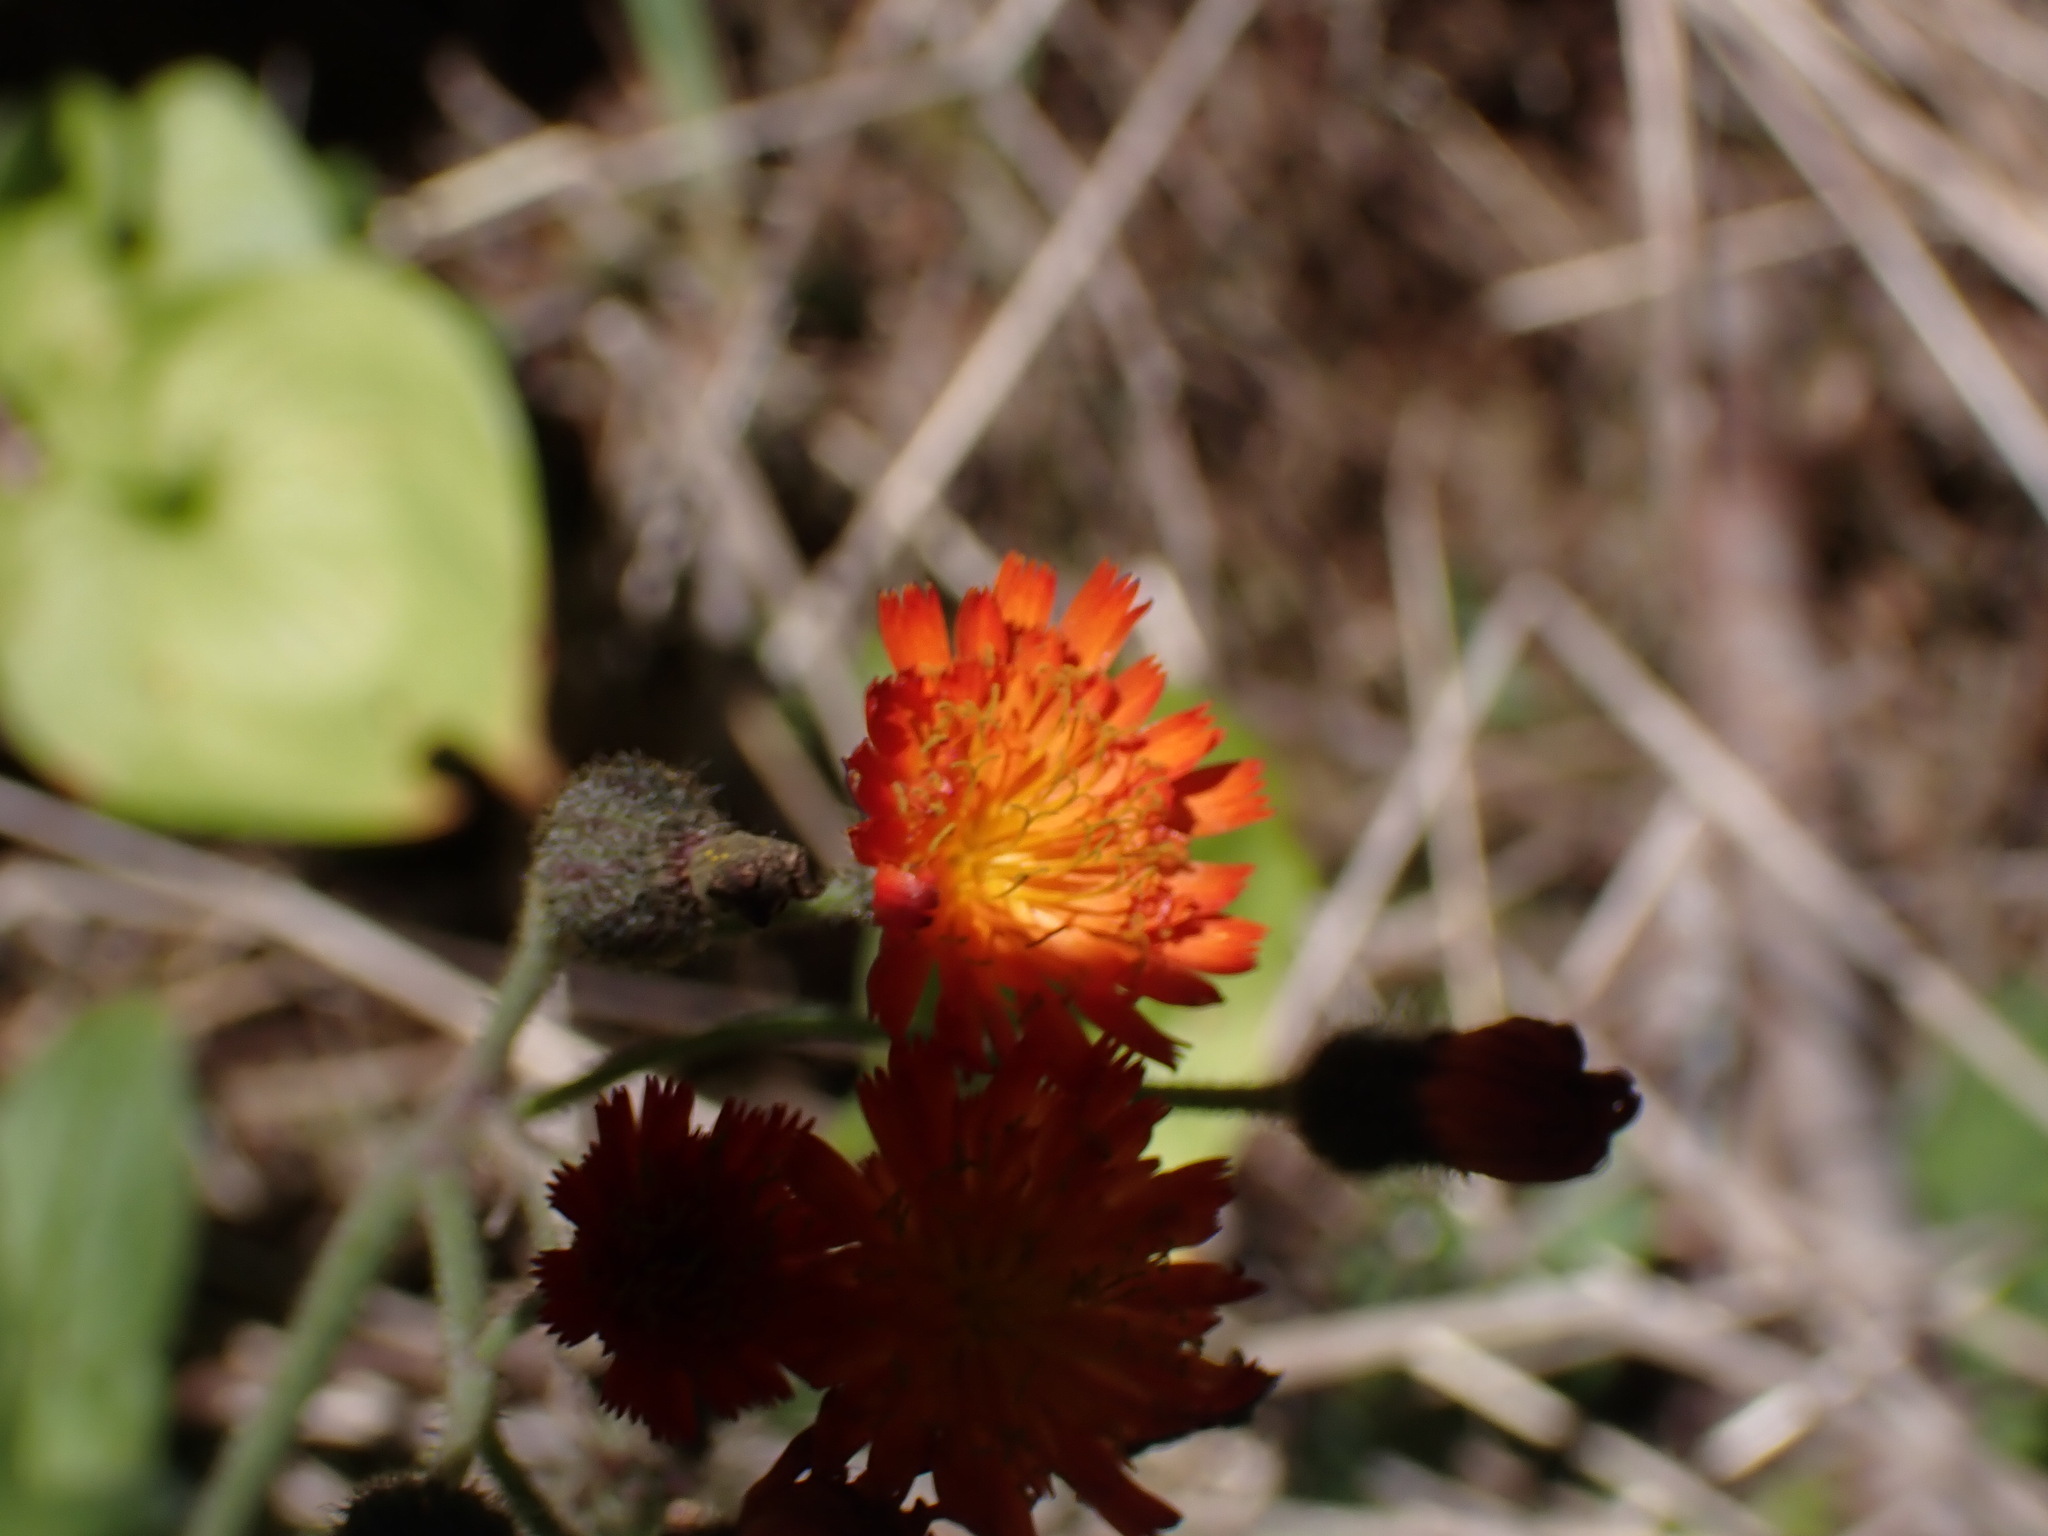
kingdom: Plantae
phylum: Tracheophyta
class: Magnoliopsida
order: Asterales
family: Asteraceae
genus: Pilosella
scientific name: Pilosella aurantiaca
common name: Fox-and-cubs
